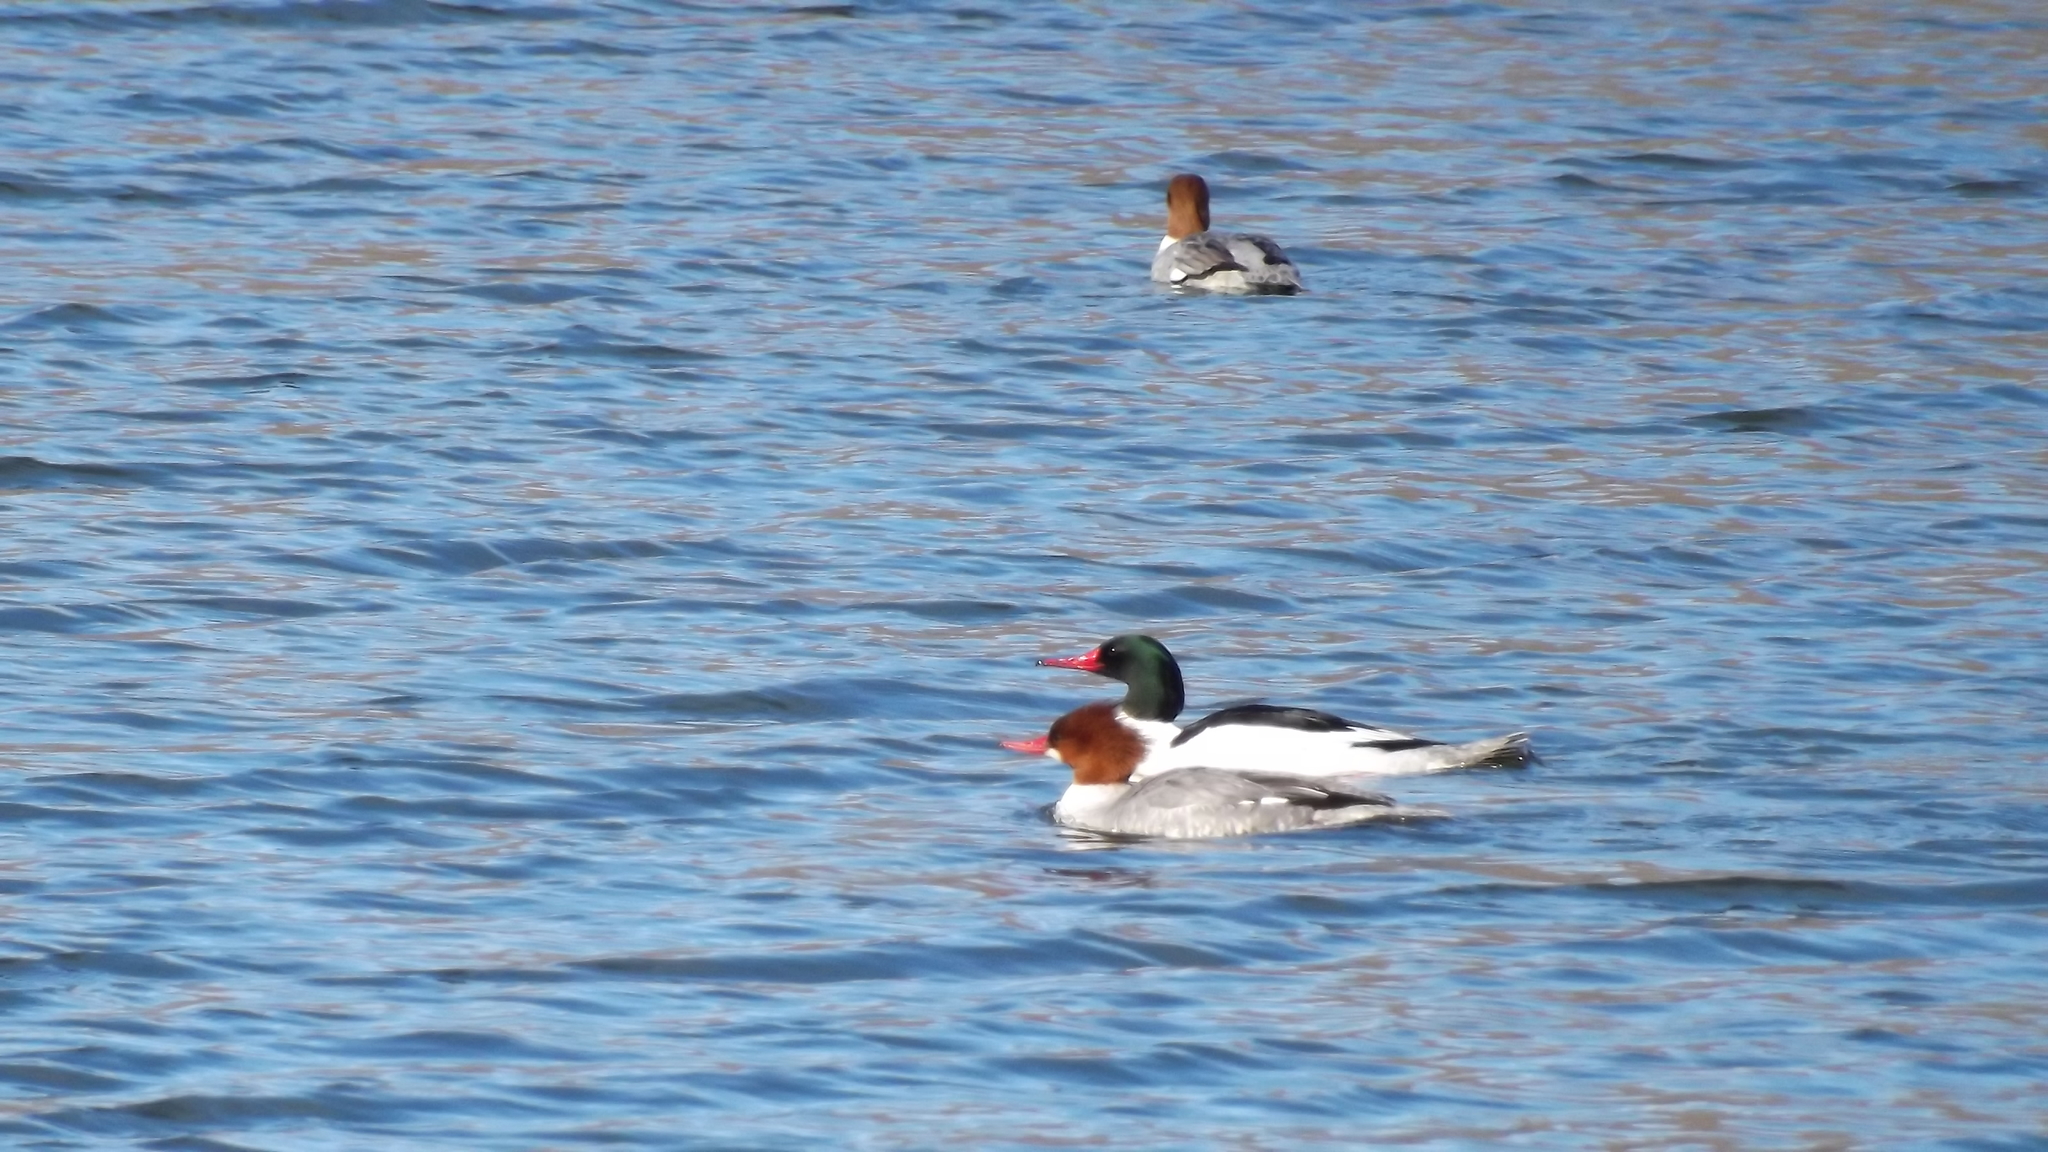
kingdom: Animalia
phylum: Chordata
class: Aves
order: Anseriformes
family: Anatidae
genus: Mergus
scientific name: Mergus merganser
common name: Common merganser
